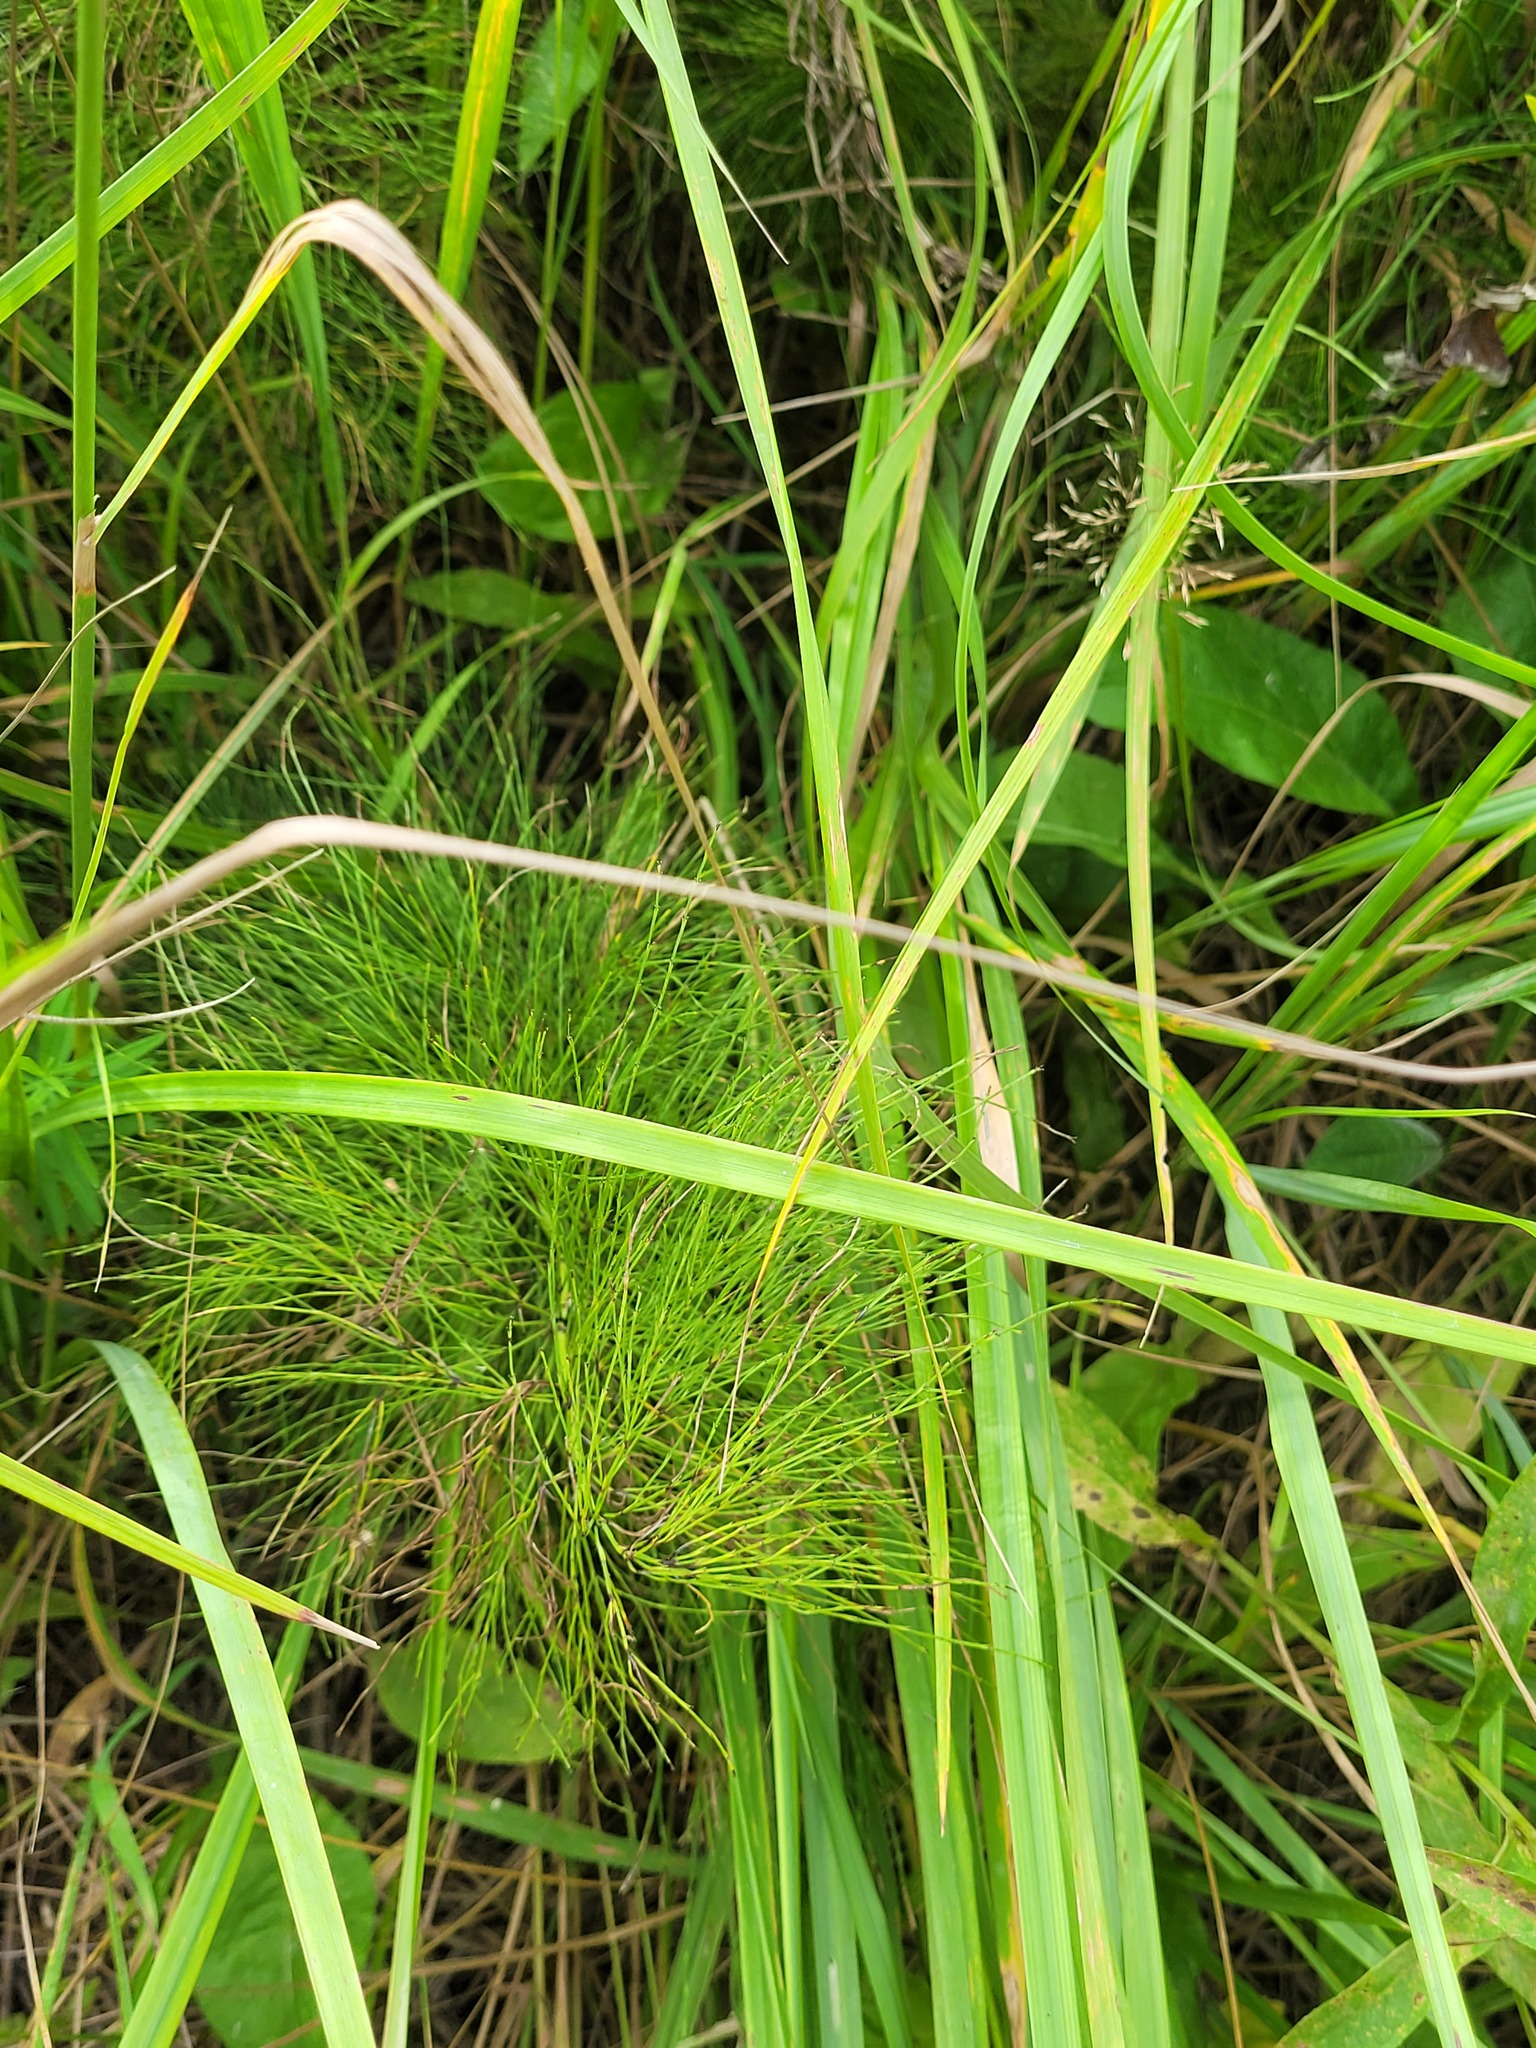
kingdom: Plantae
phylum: Tracheophyta
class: Polypodiopsida
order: Equisetales
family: Equisetaceae
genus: Equisetum
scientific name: Equisetum sylvaticum
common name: Wood horsetail
